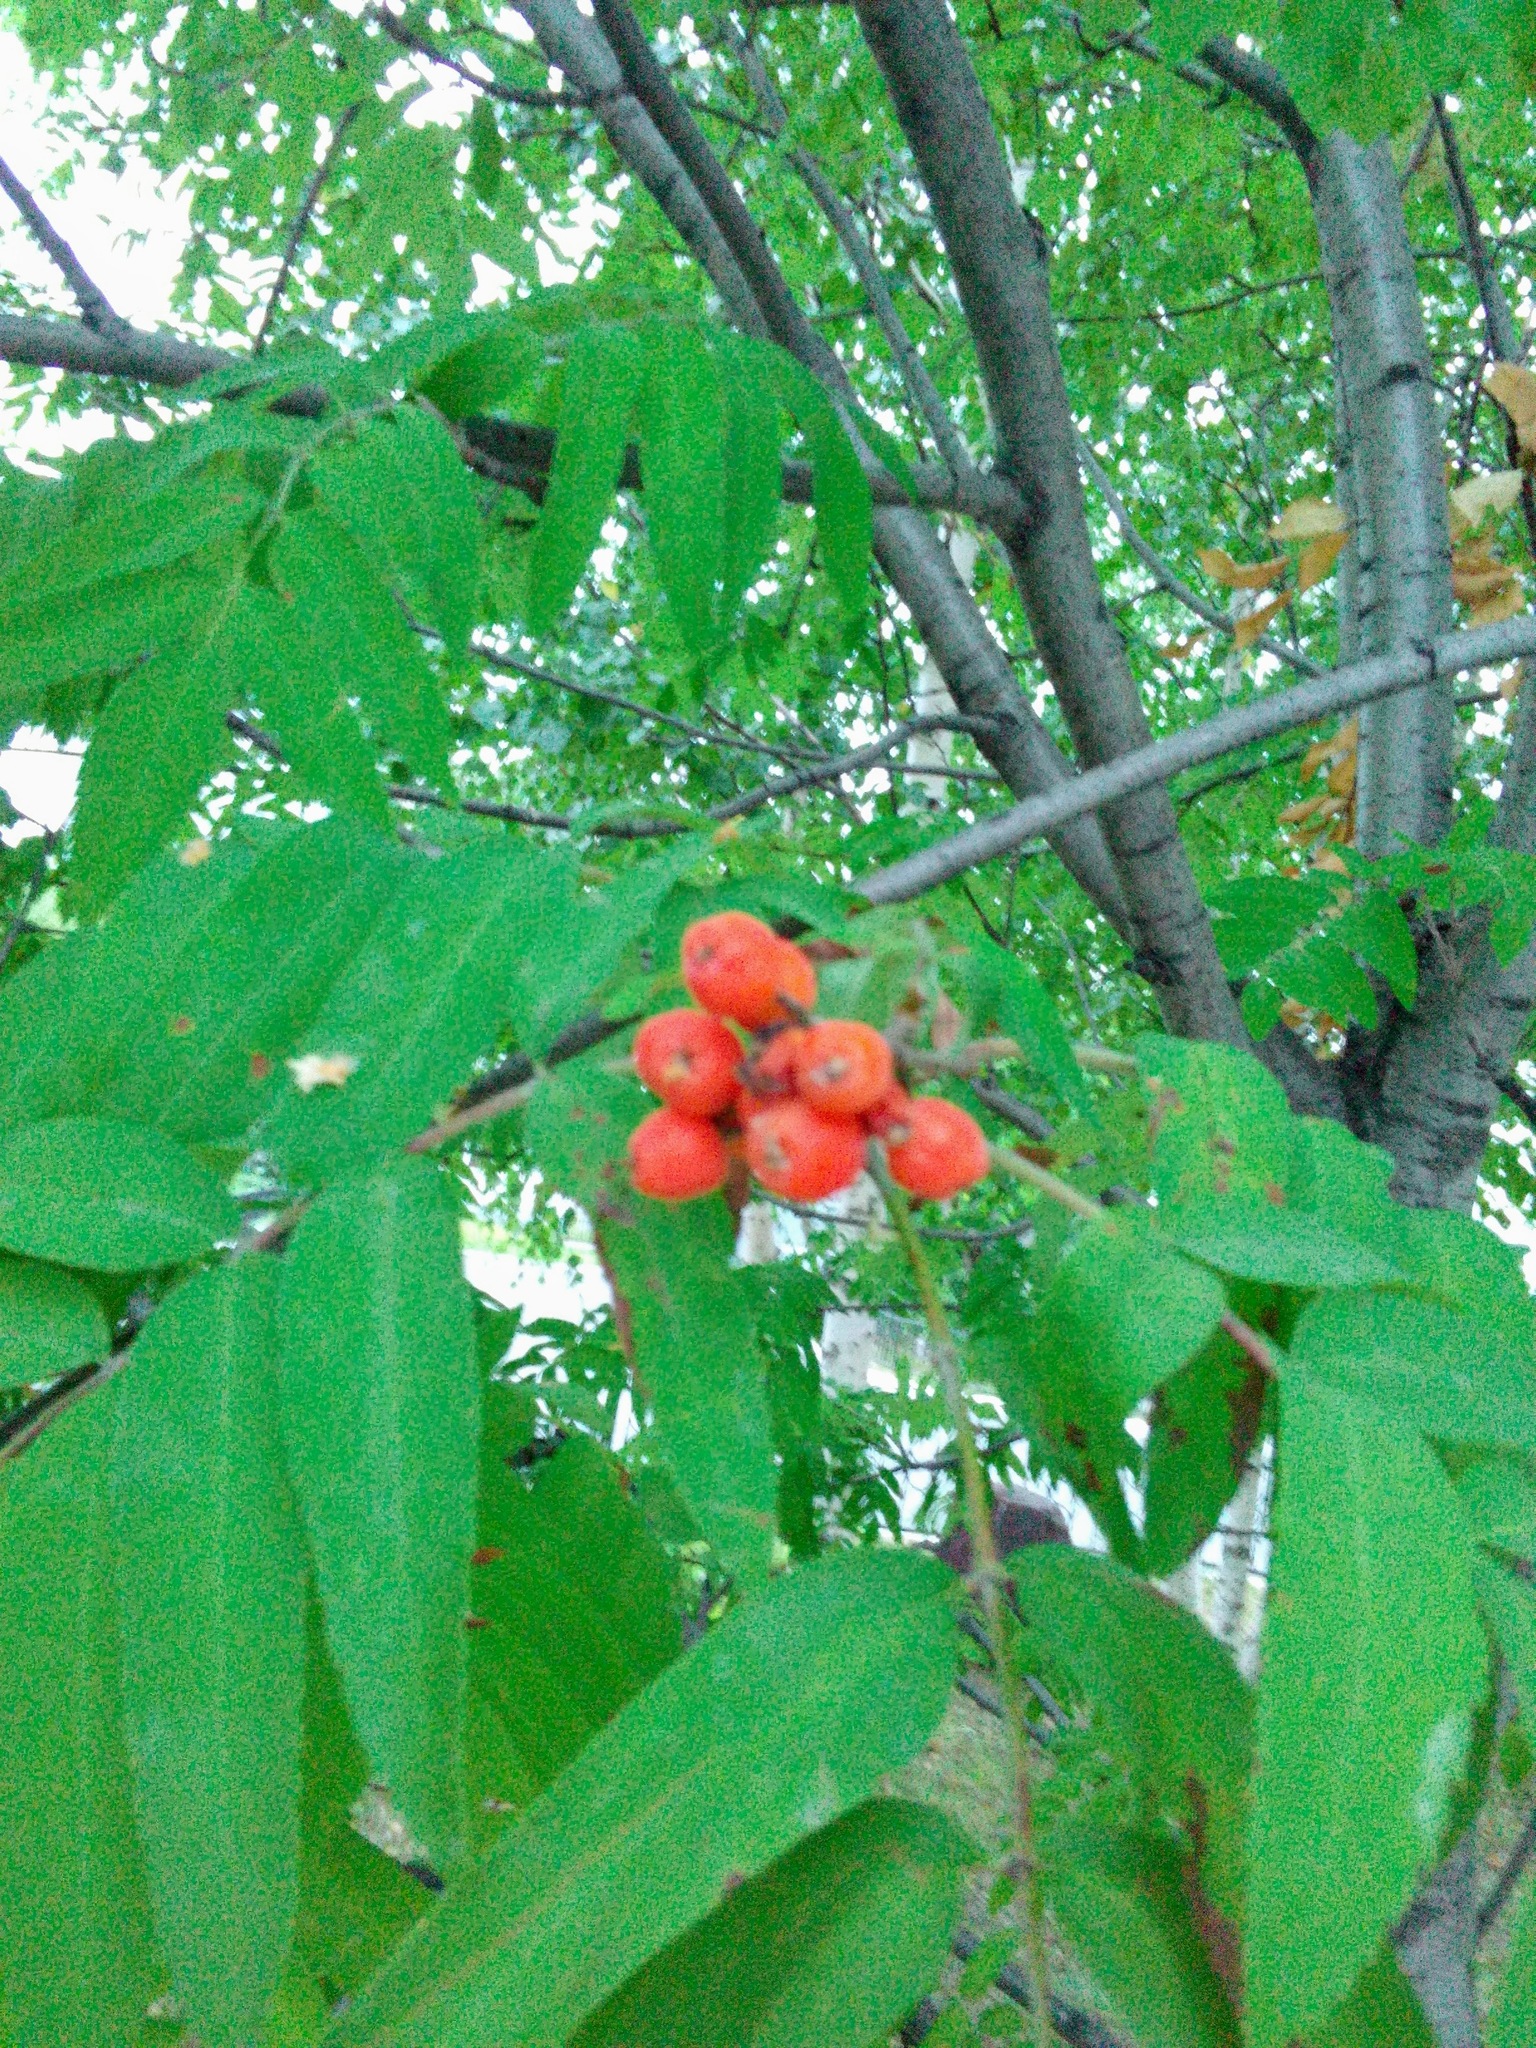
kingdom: Plantae
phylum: Tracheophyta
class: Magnoliopsida
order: Rosales
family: Rosaceae
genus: Sorbus
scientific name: Sorbus aucuparia
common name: Rowan
